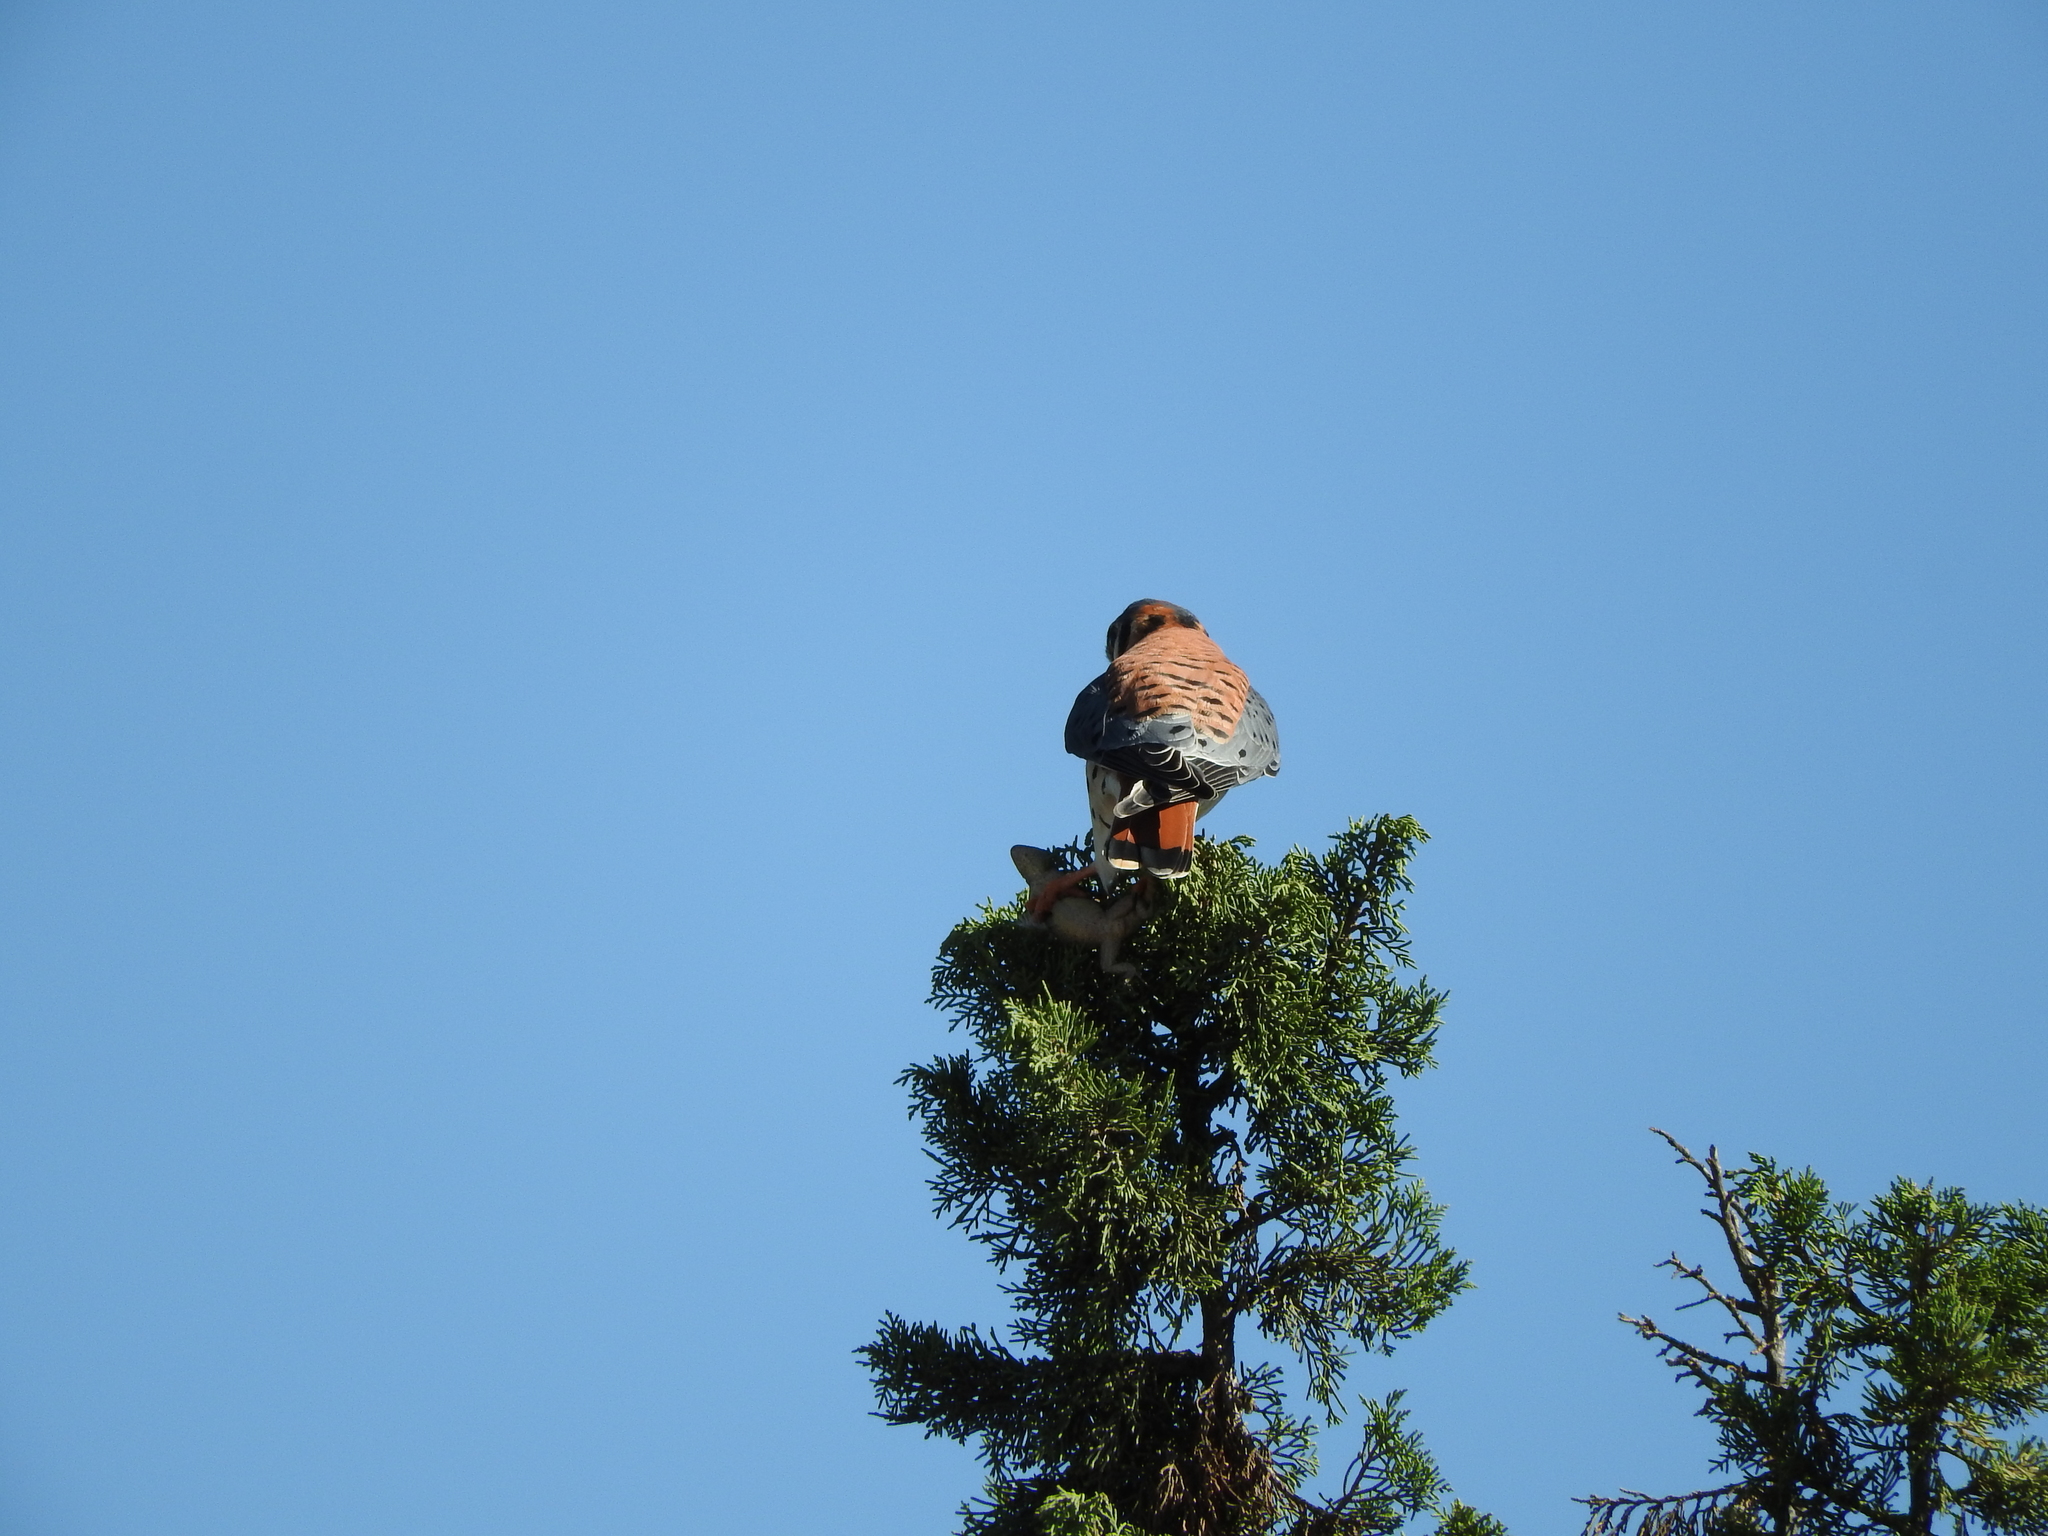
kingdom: Animalia
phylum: Chordata
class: Aves
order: Falconiformes
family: Falconidae
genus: Falco
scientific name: Falco sparverius
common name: American kestrel
